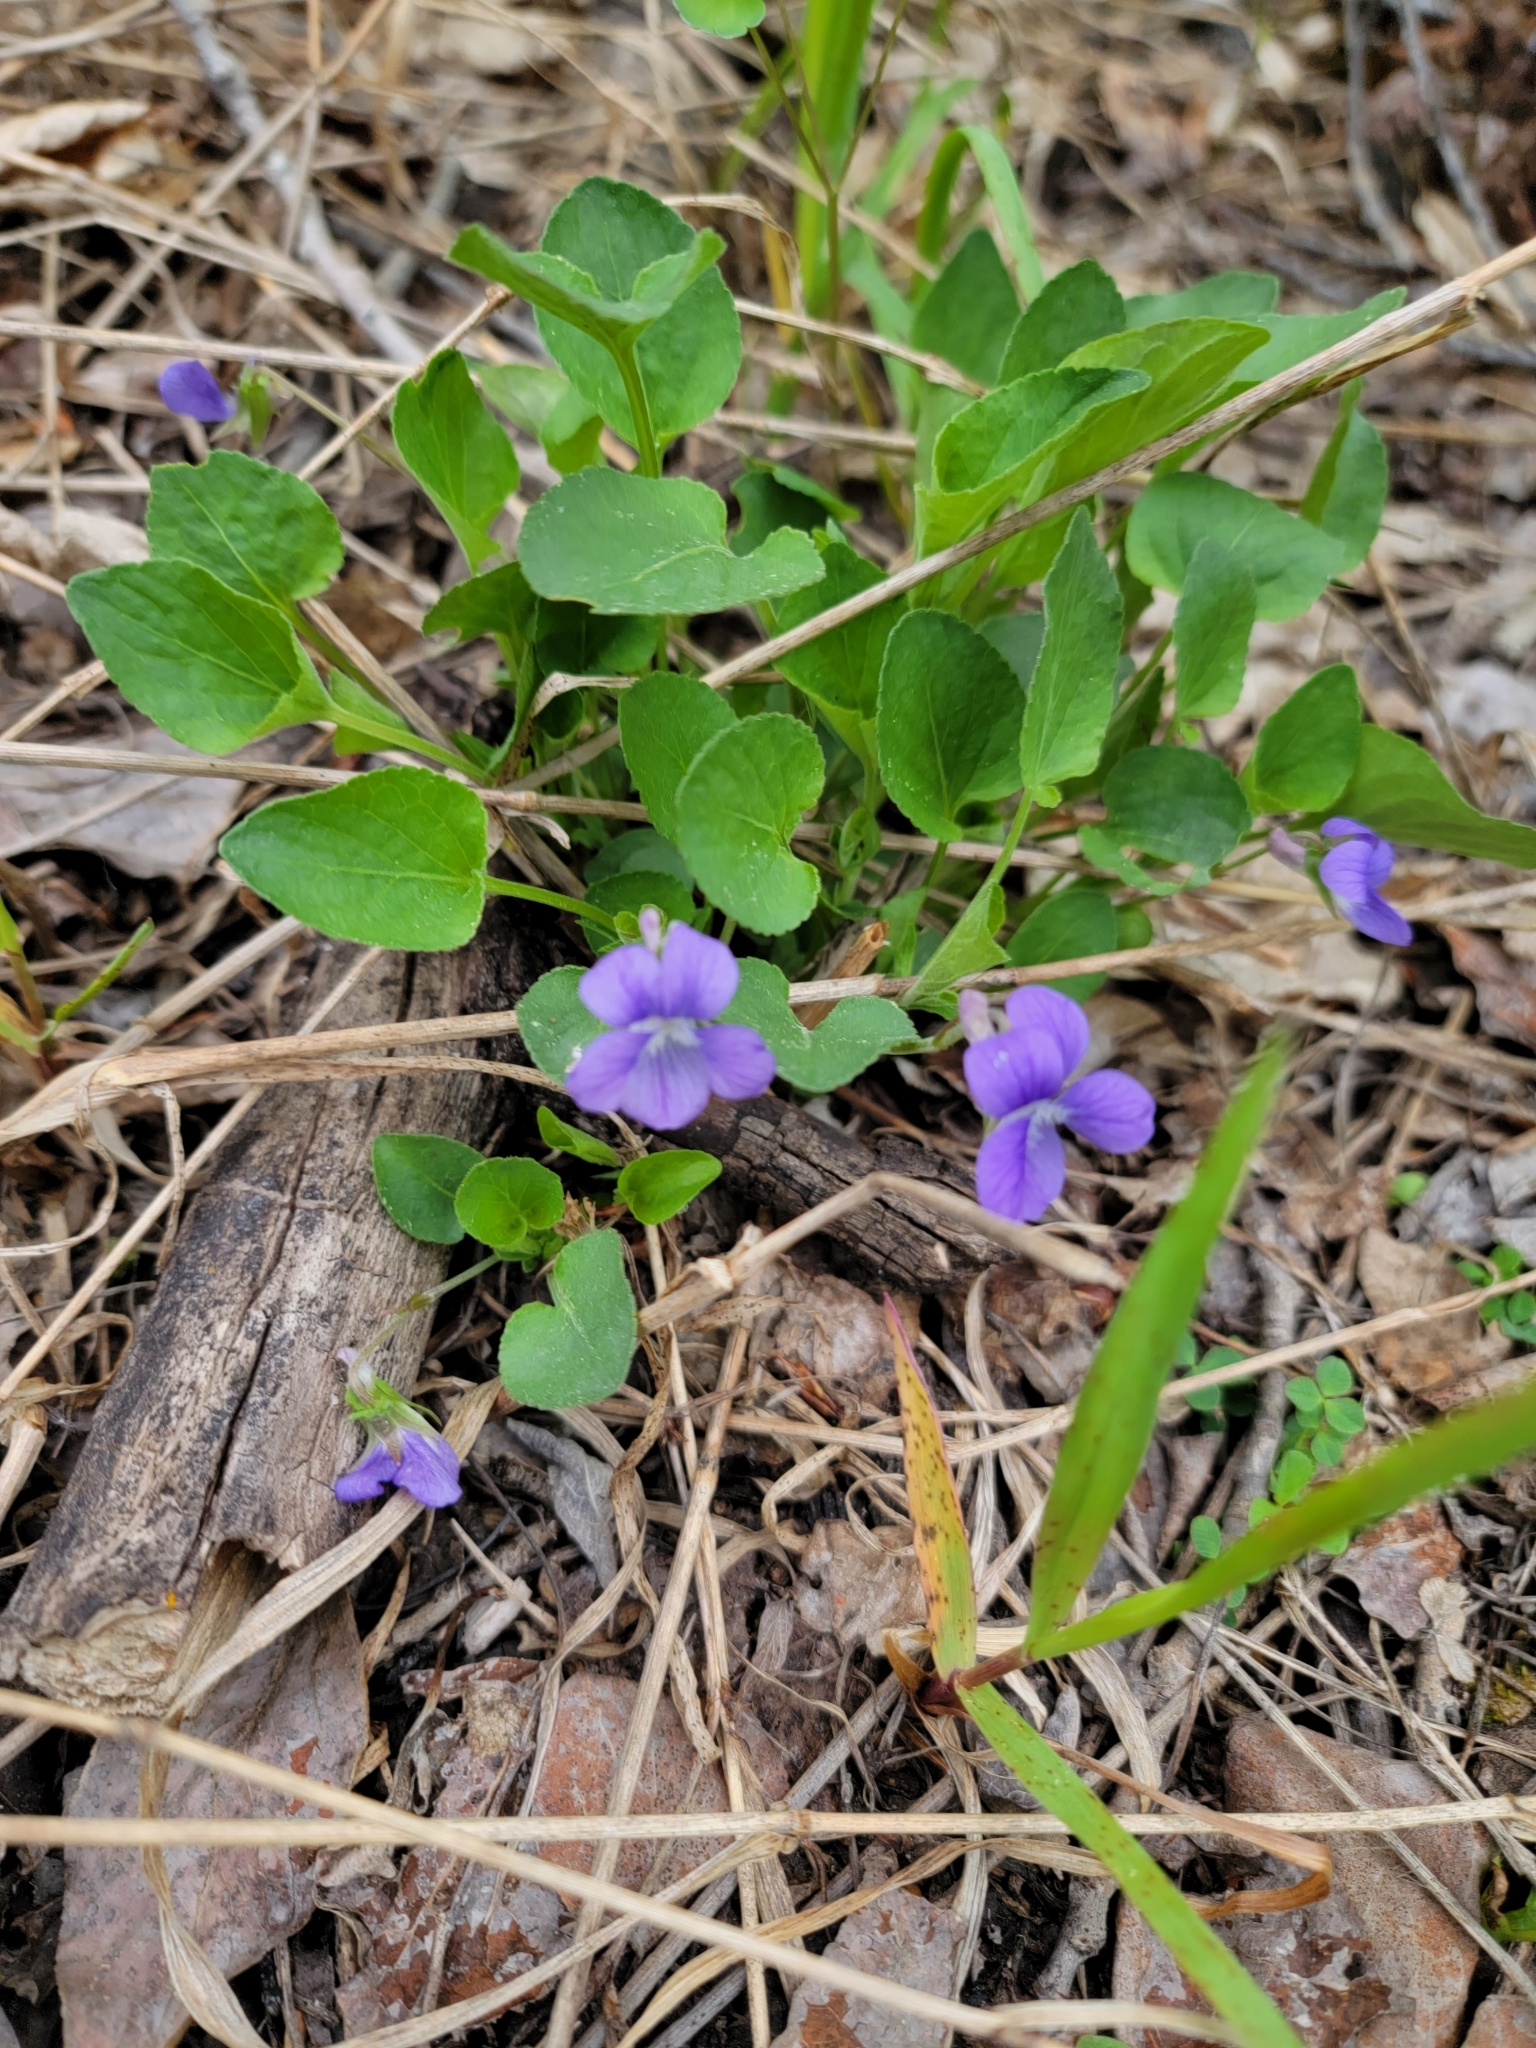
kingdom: Plantae
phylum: Tracheophyta
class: Magnoliopsida
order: Malpighiales
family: Violaceae
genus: Viola
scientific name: Viola adunca
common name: Sand violet
